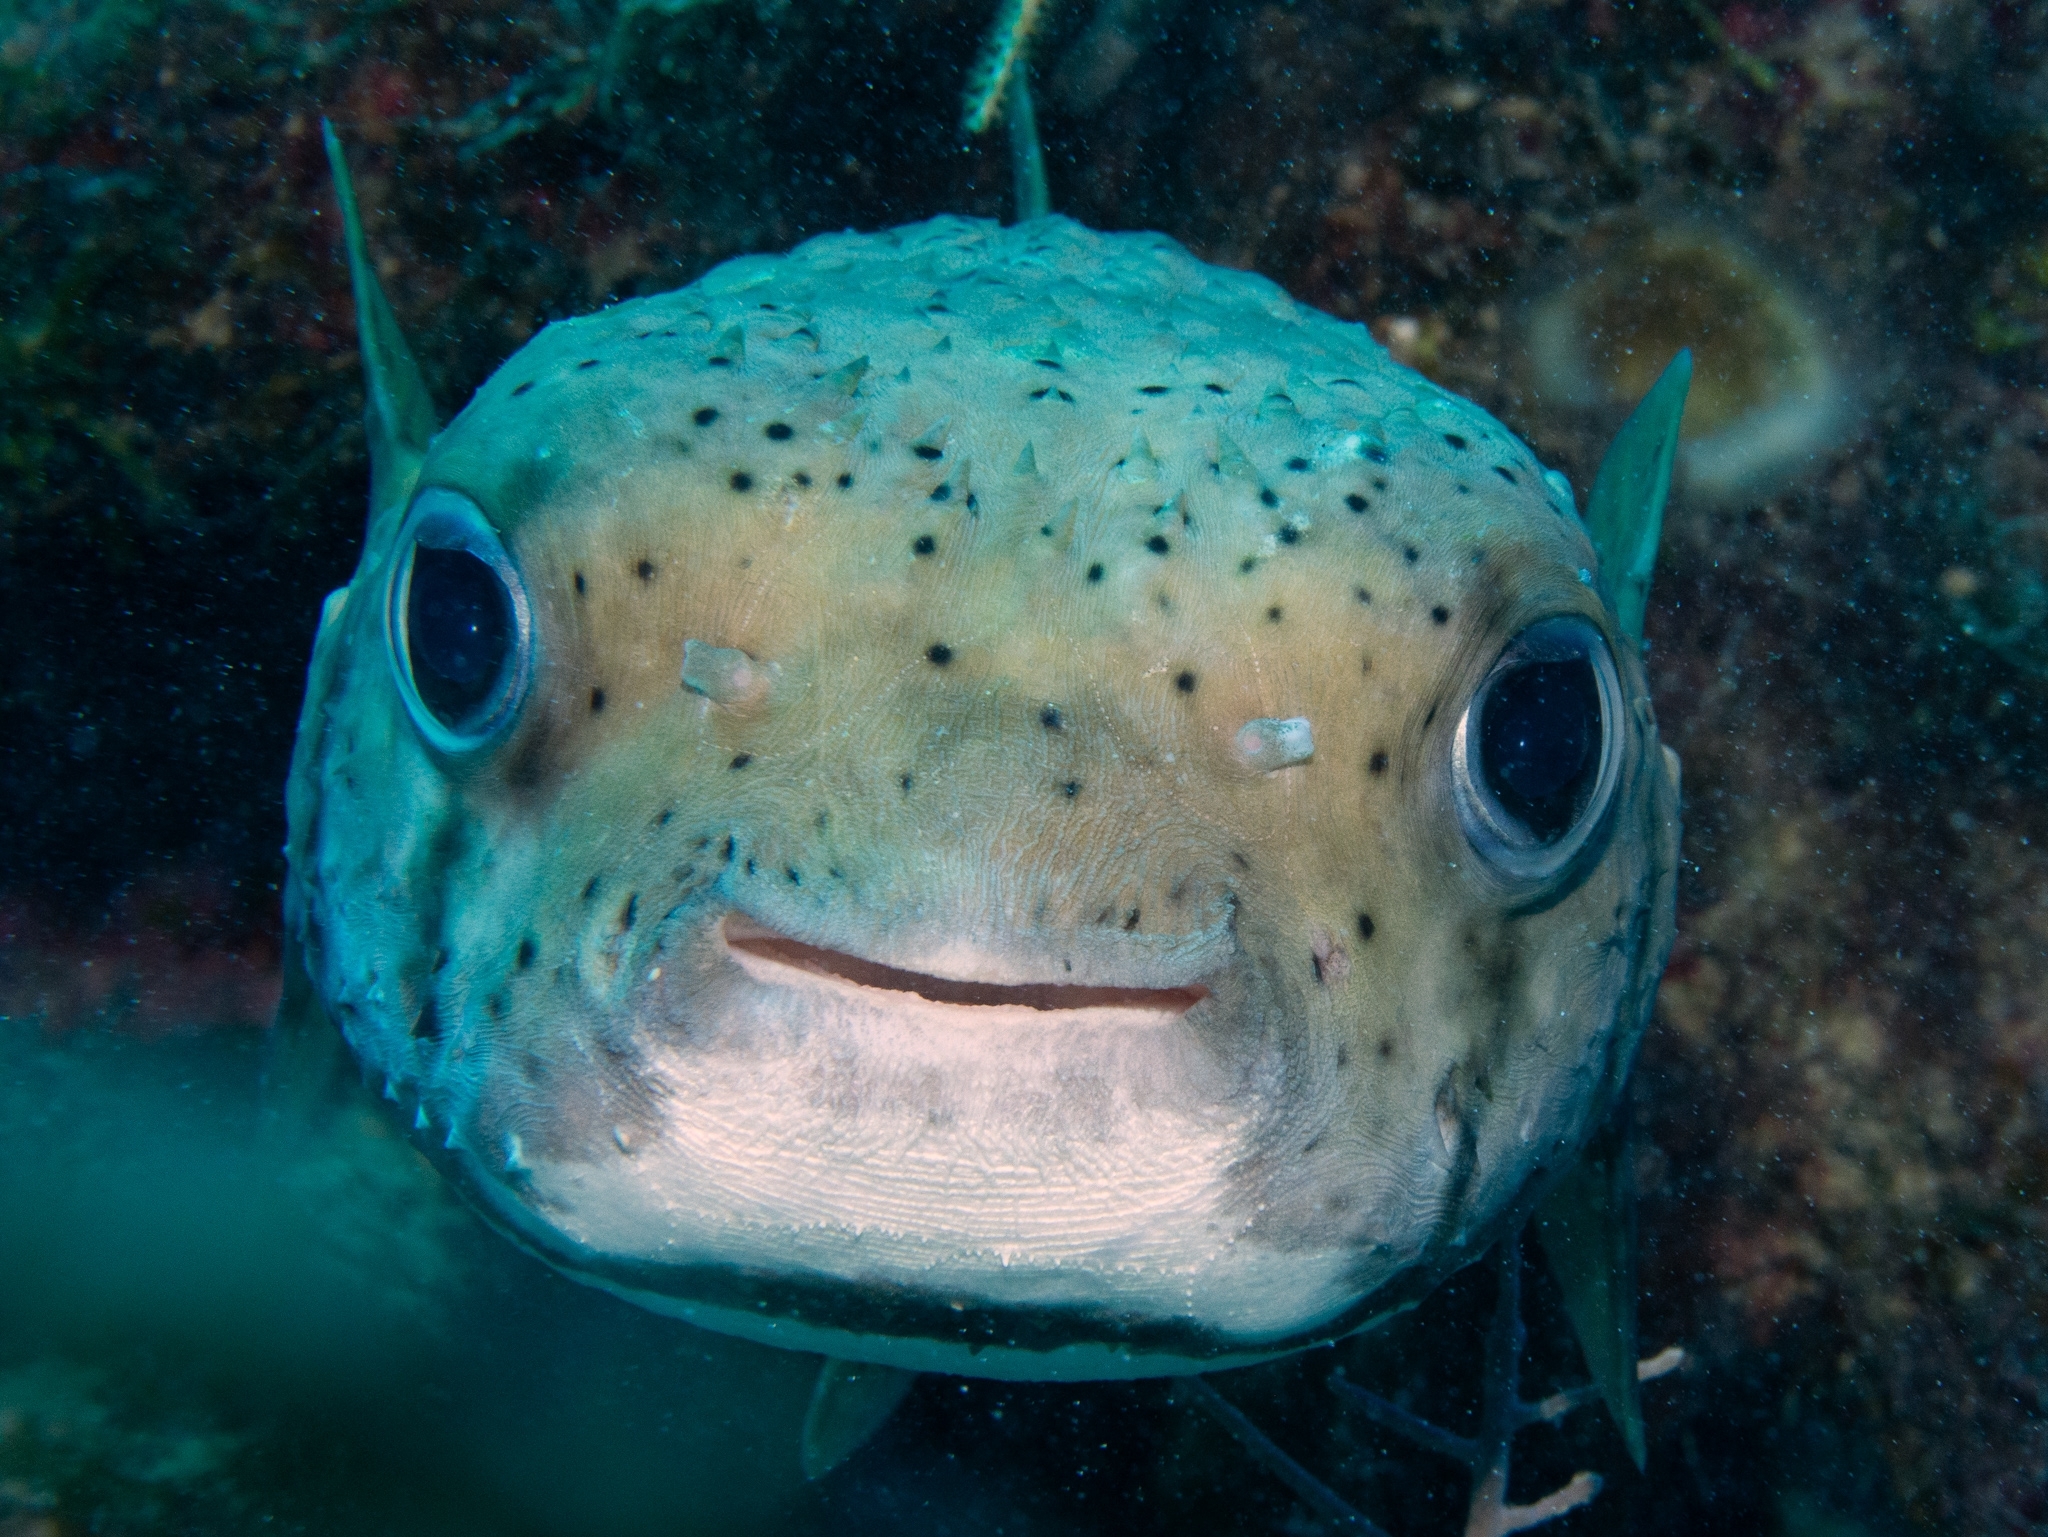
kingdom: Animalia
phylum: Chordata
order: Tetraodontiformes
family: Diodontidae
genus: Diodon
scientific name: Diodon hystrix
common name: Giant porcupinefish
